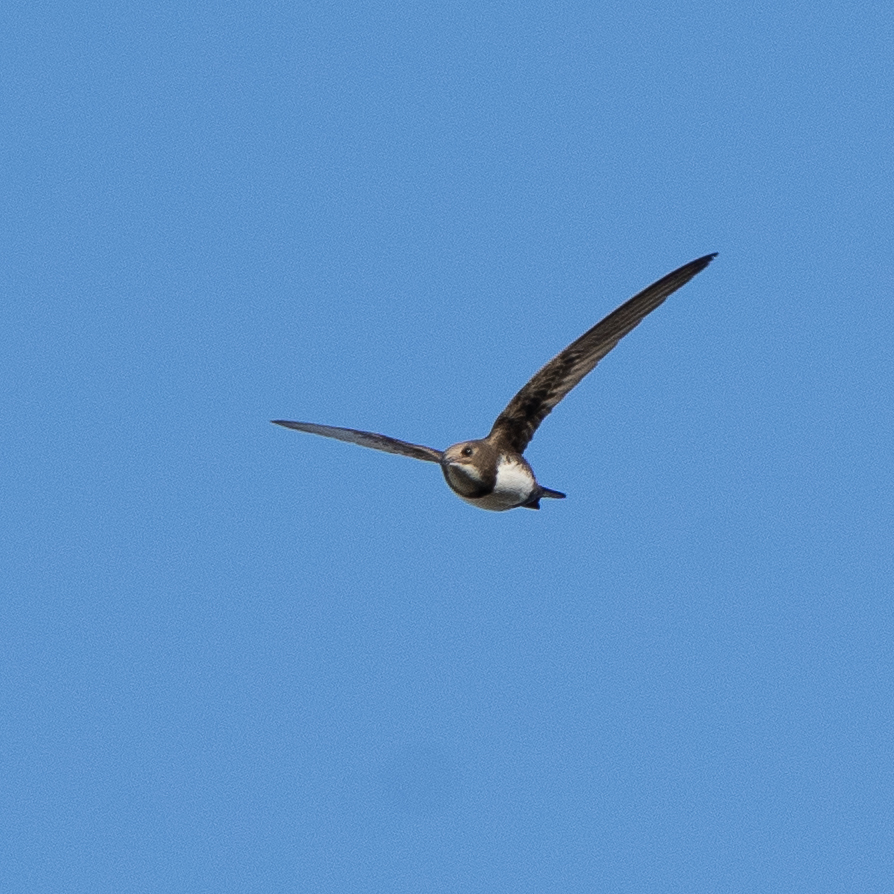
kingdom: Animalia
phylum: Chordata
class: Aves
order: Apodiformes
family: Apodidae
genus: Tachymarptis
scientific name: Tachymarptis melba
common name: Alpine swift
